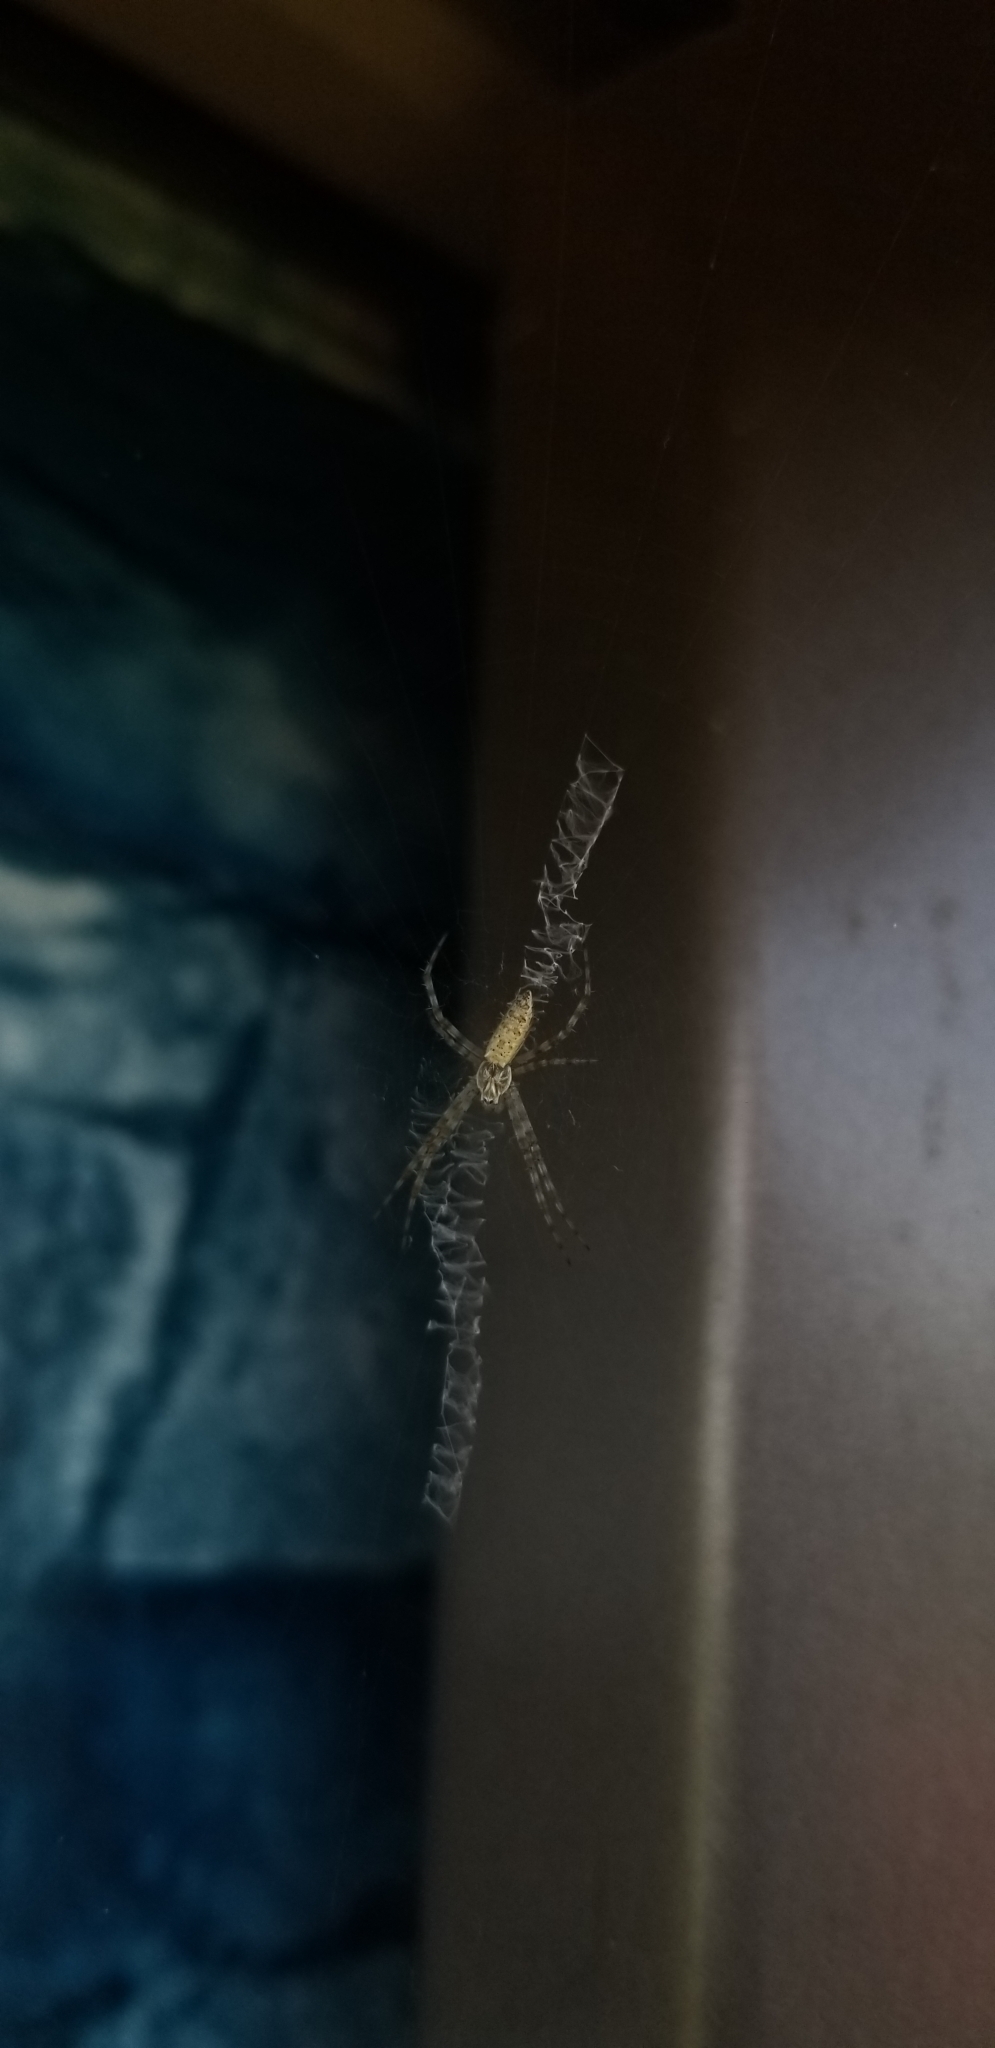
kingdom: Animalia
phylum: Arthropoda
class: Arachnida
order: Araneae
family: Araneidae
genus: Argiope
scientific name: Argiope aurantia
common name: Orb weavers
